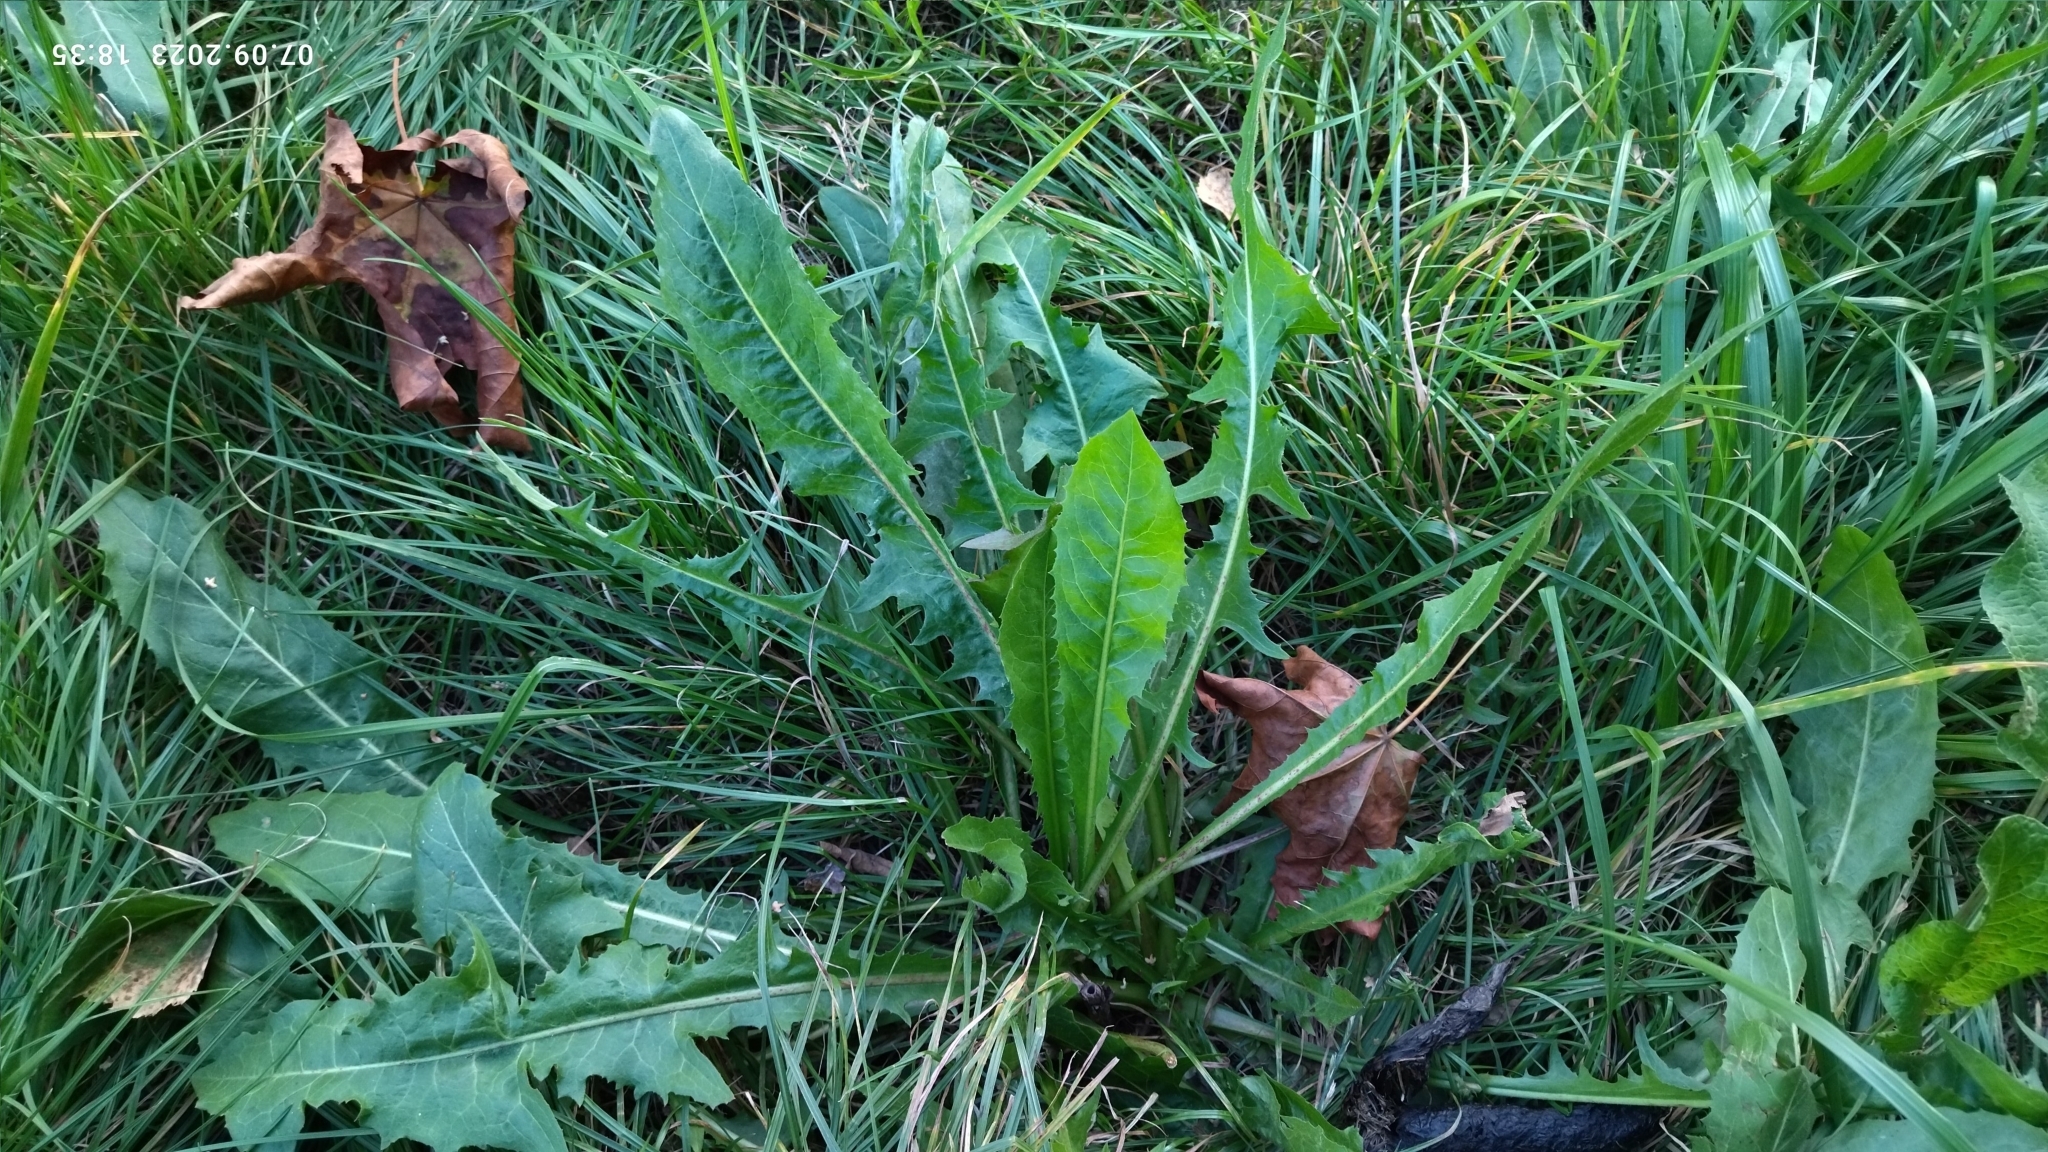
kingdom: Plantae
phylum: Tracheophyta
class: Magnoliopsida
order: Asterales
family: Asteraceae
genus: Taraxacum
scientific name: Taraxacum officinale
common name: Common dandelion
